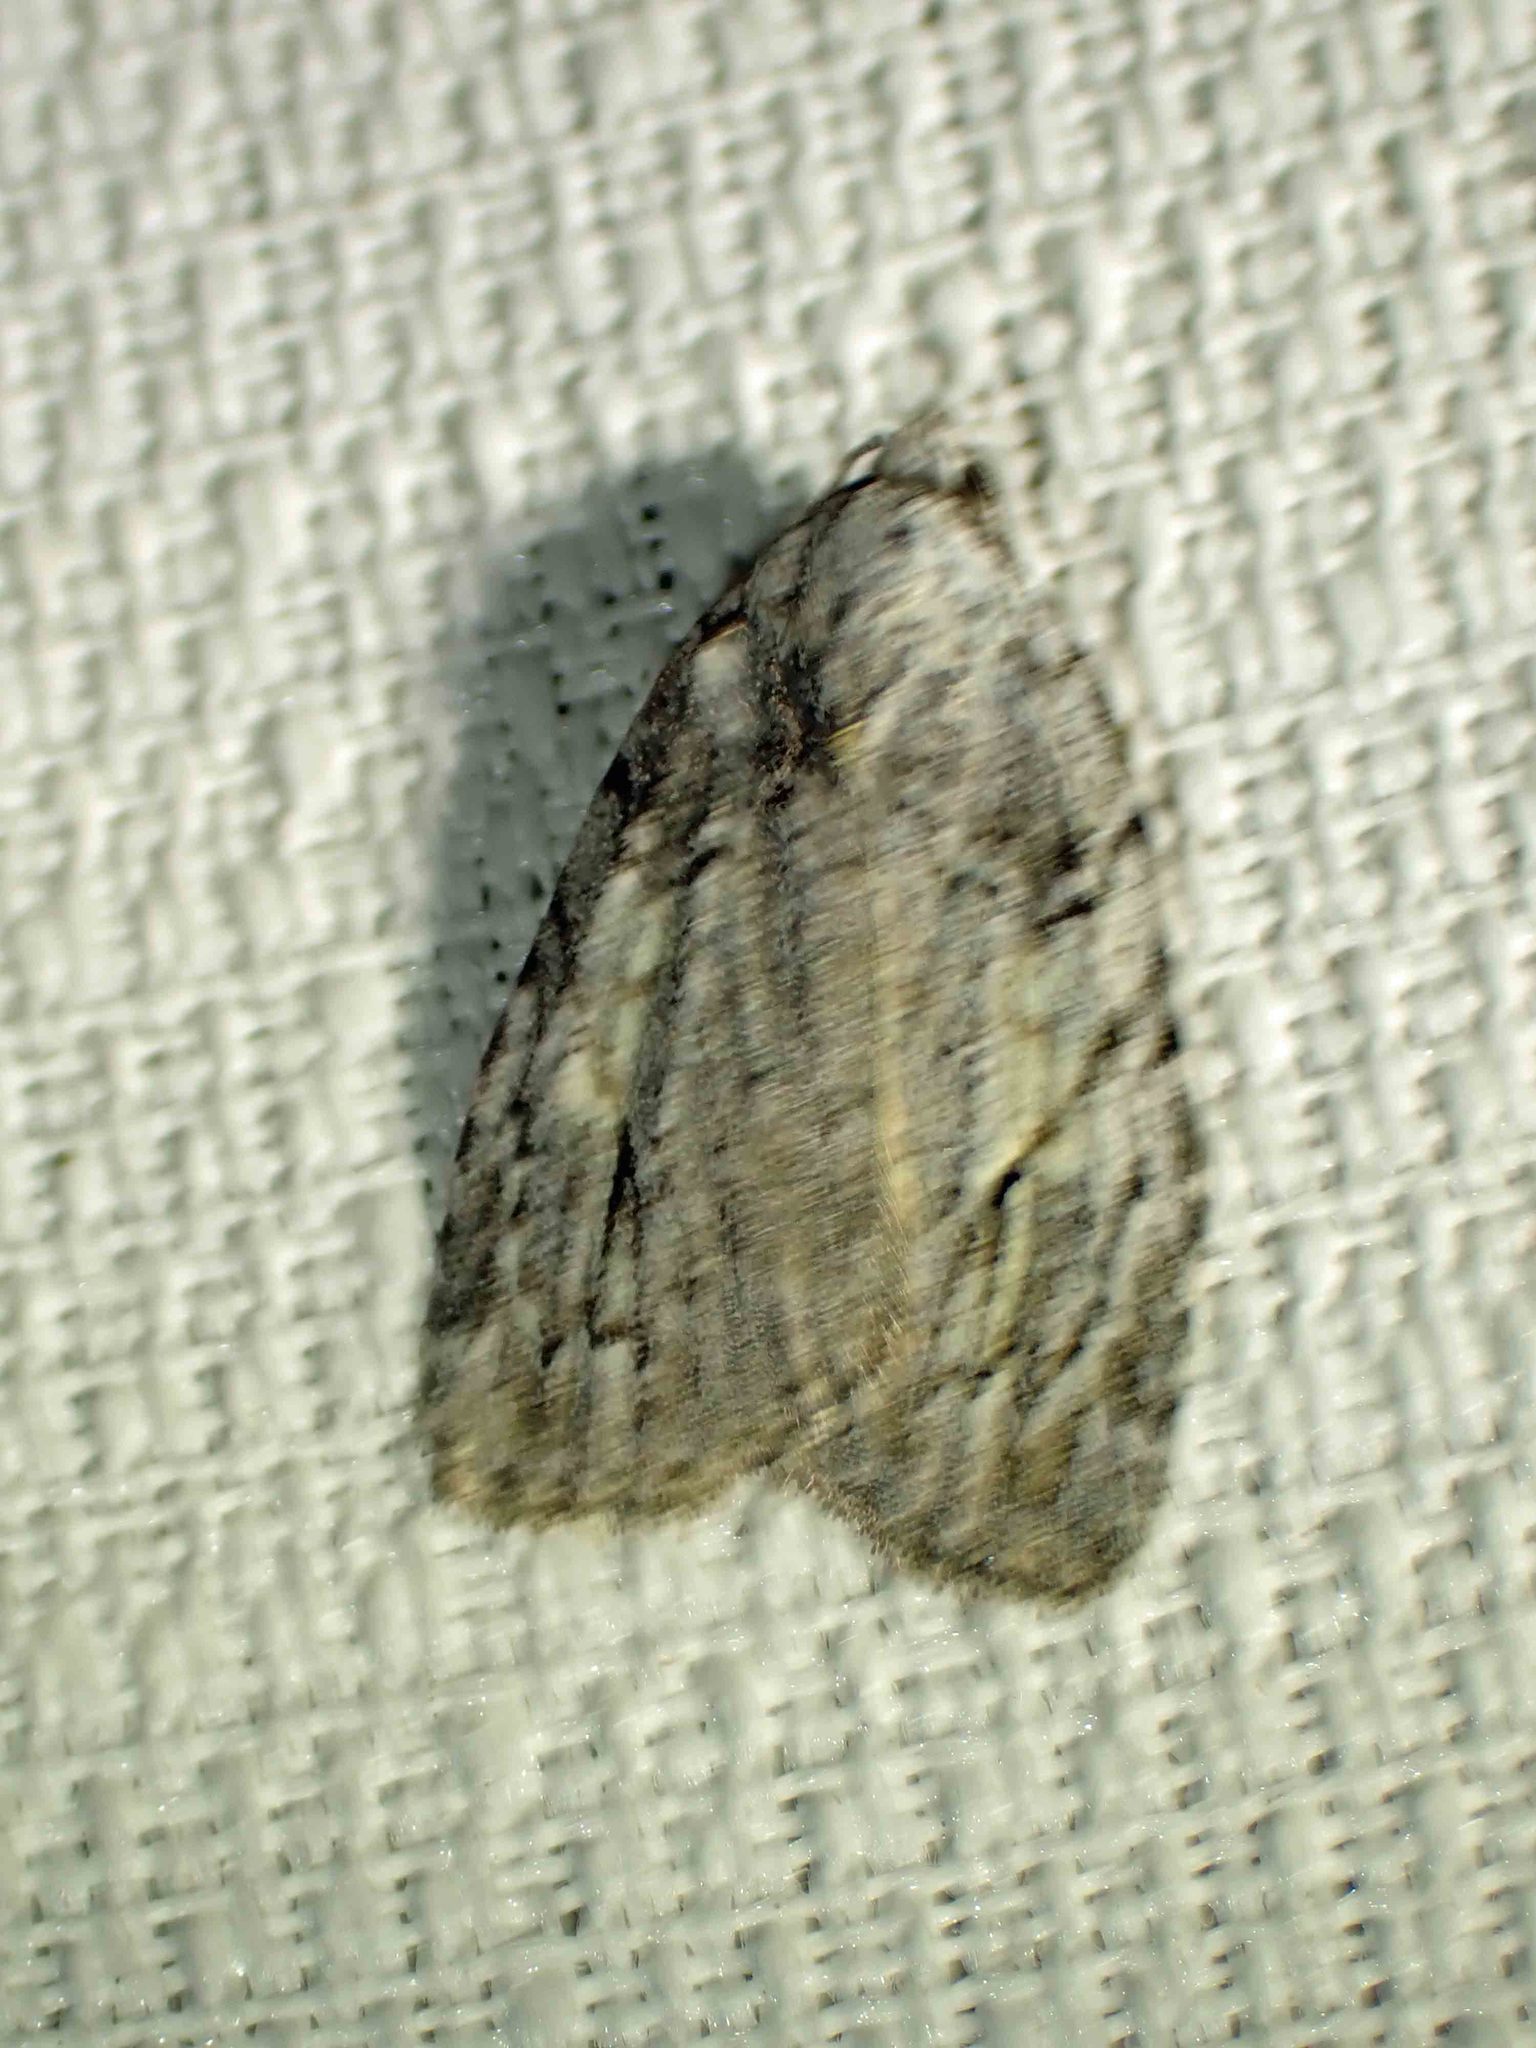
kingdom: Animalia
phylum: Arthropoda
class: Insecta
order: Lepidoptera
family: Noctuidae
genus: Balsa
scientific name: Balsa labecula
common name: White-blotched balsa moth
